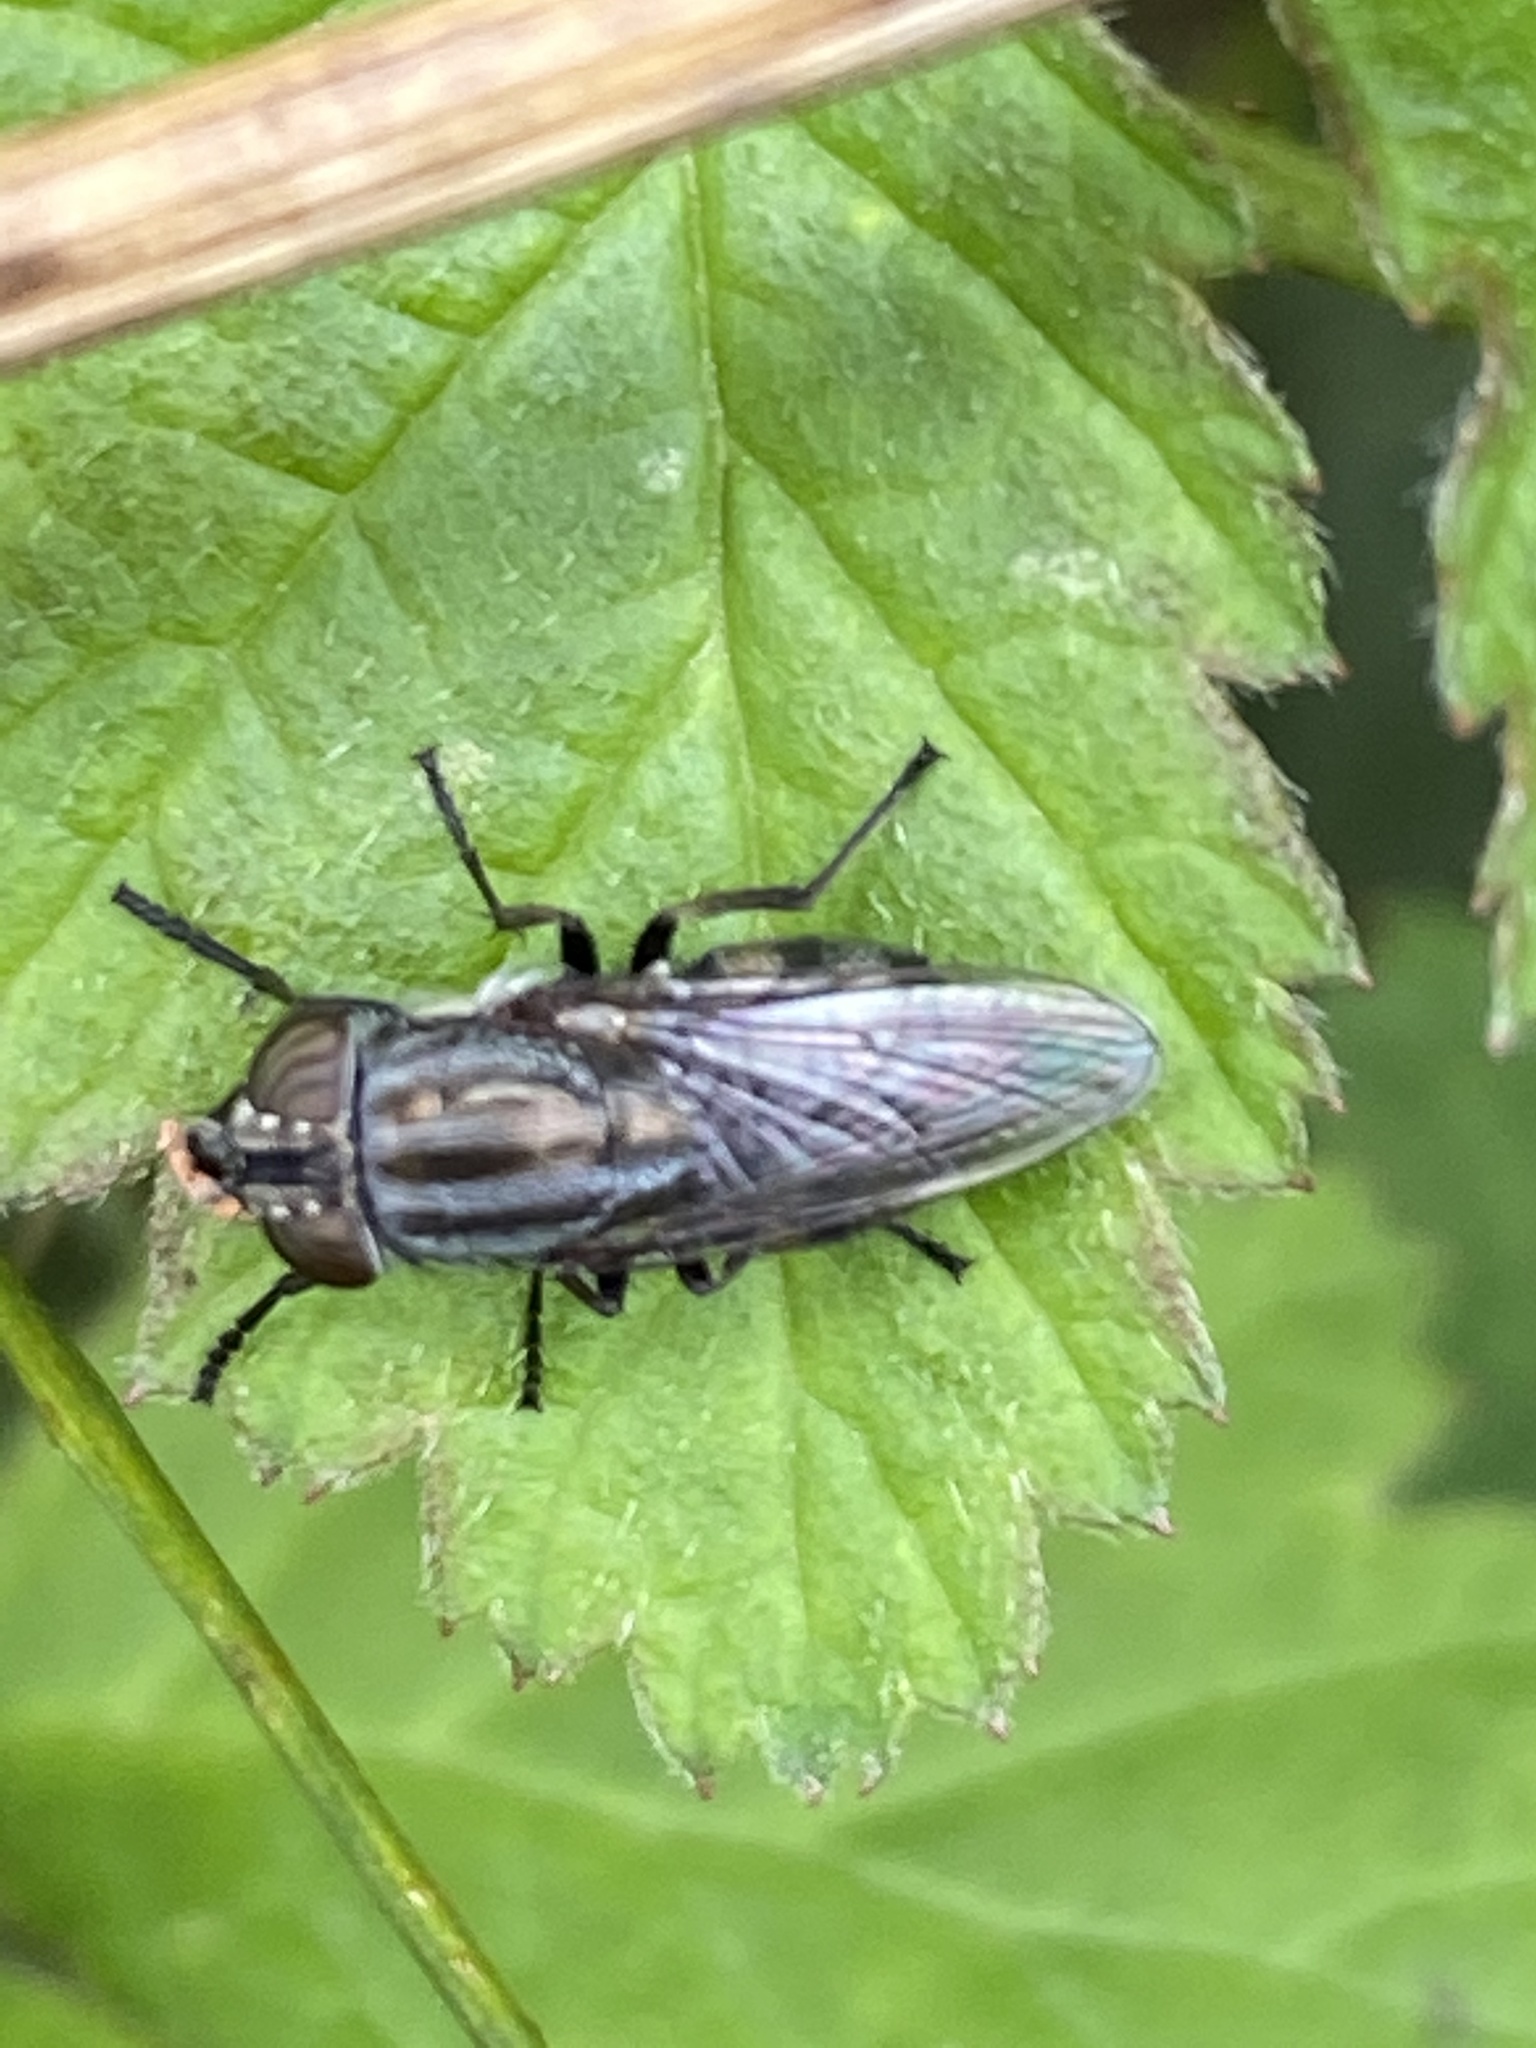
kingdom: Animalia
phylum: Arthropoda
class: Insecta
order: Diptera
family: Calliphoridae
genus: Stomorhina
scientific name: Stomorhina lunata
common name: Locust blowfly
